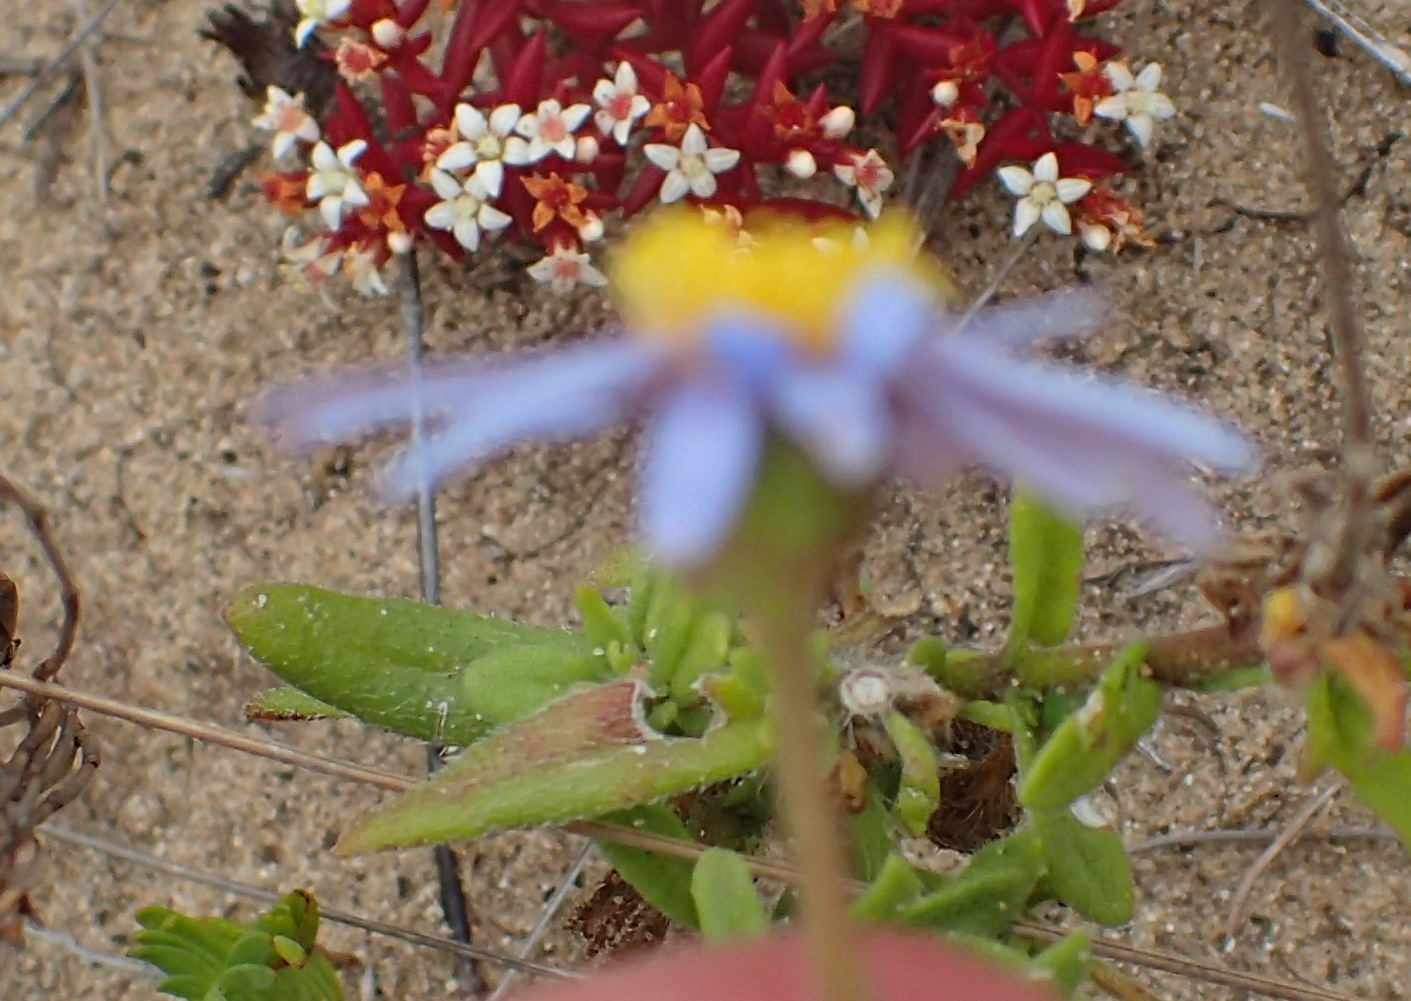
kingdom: Plantae
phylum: Tracheophyta
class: Magnoliopsida
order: Asterales
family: Asteraceae
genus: Felicia
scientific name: Felicia amoena
